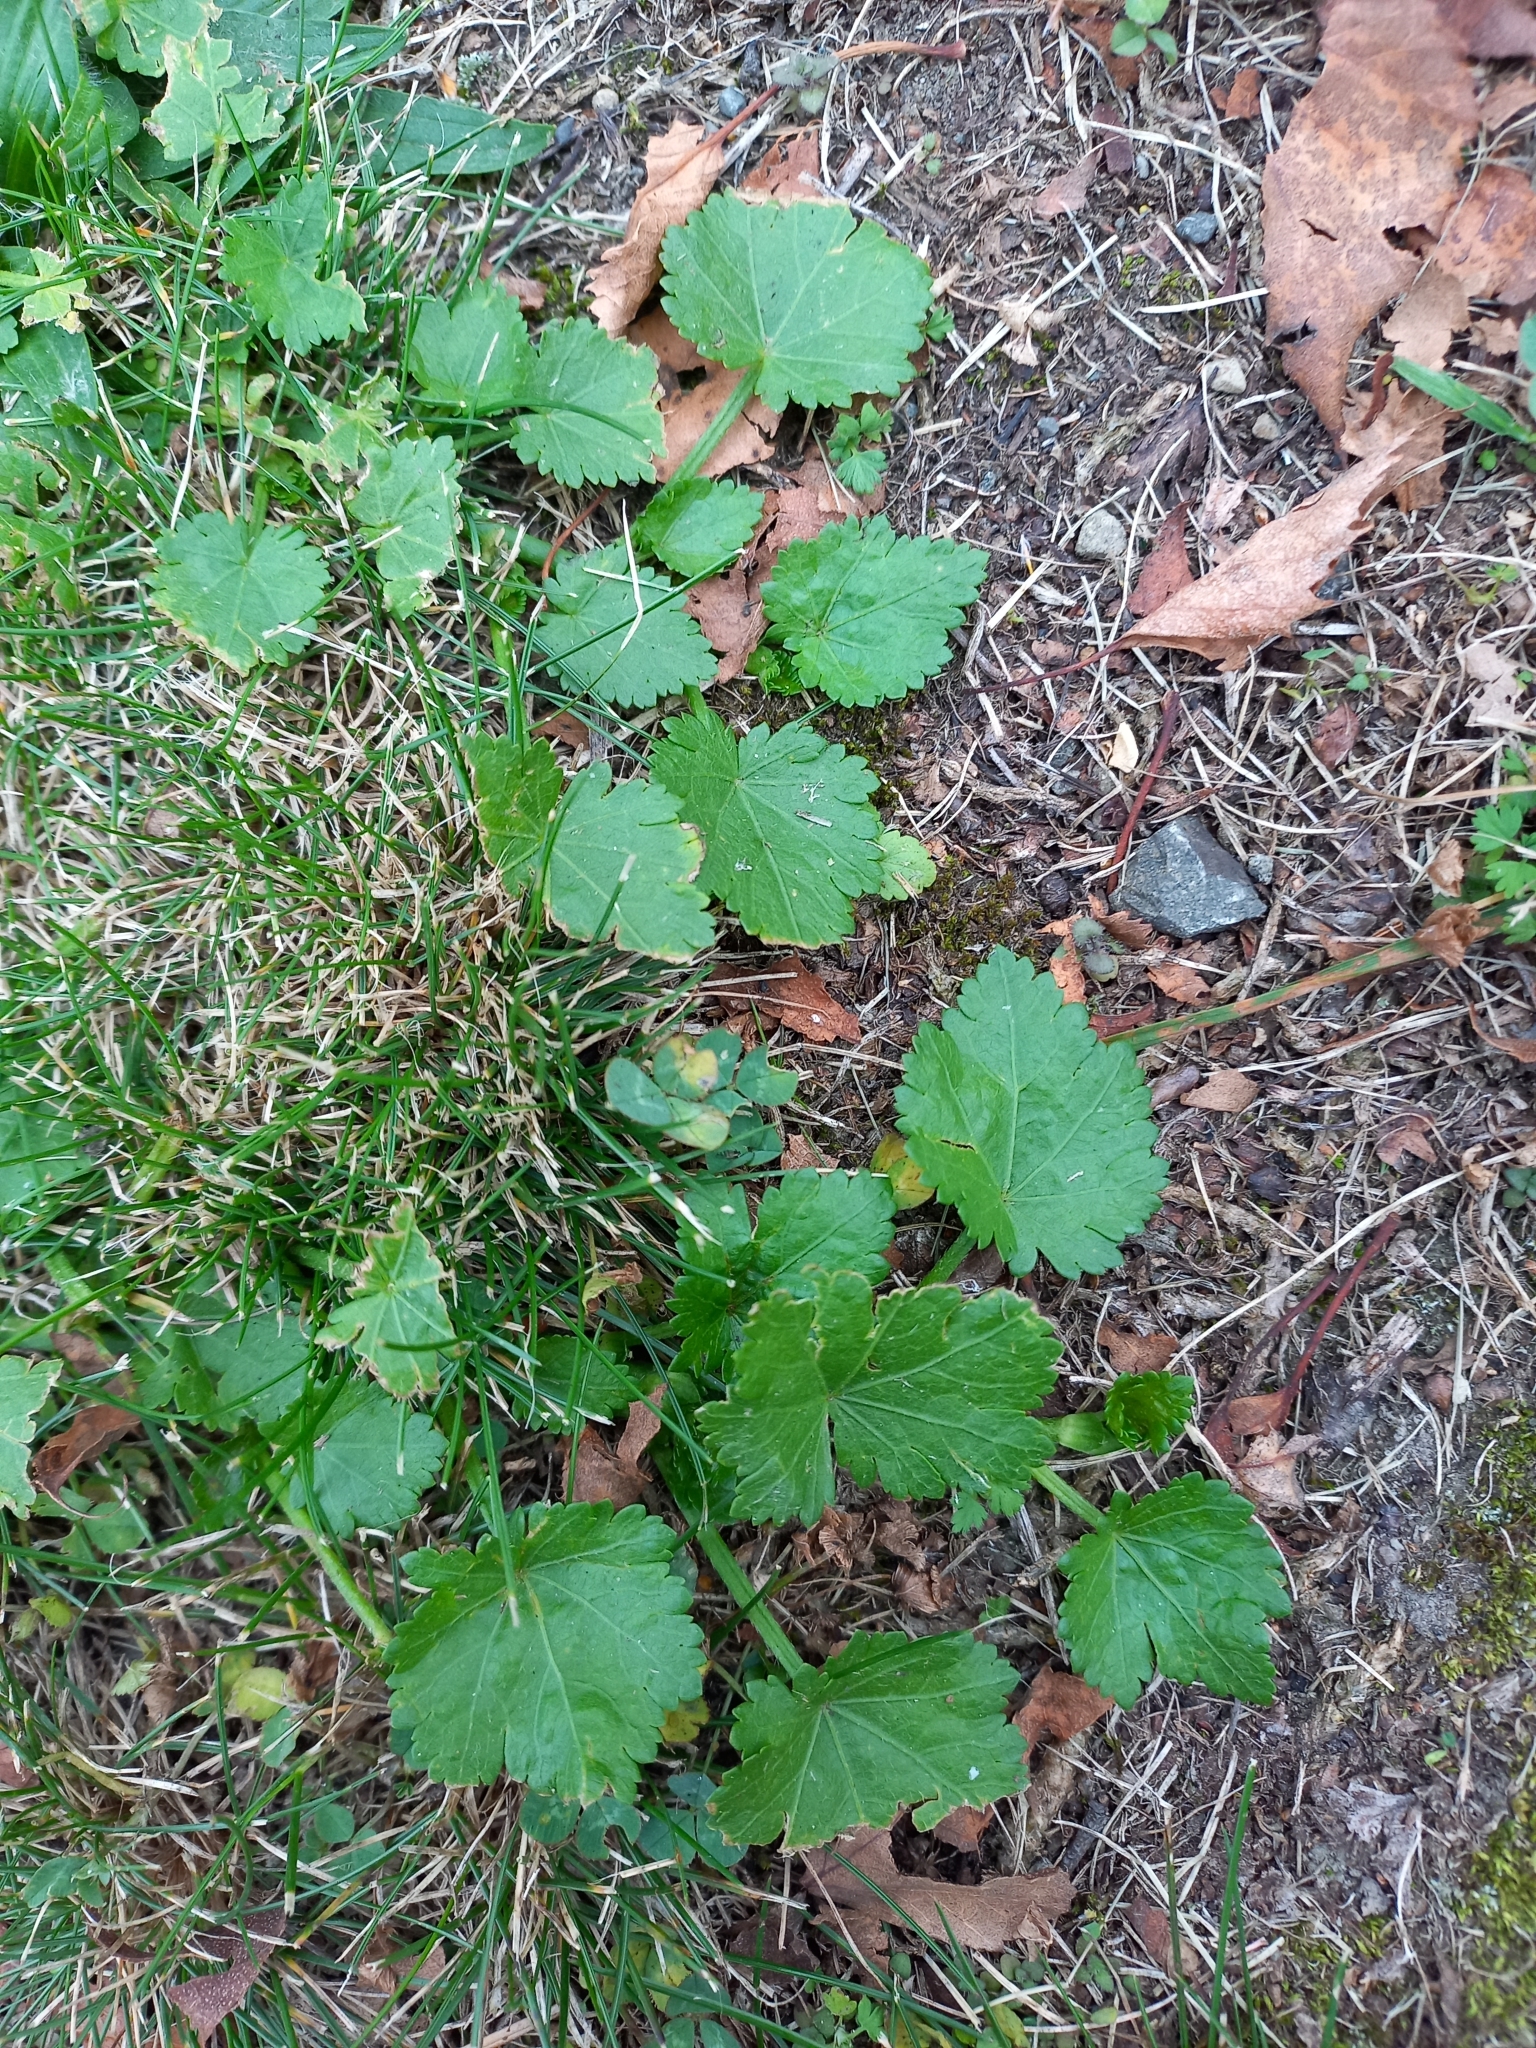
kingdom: Plantae
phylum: Tracheophyta
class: Magnoliopsida
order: Malvales
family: Malvaceae
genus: Modiola
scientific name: Modiola caroliniana
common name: Carolina bristlemallow
